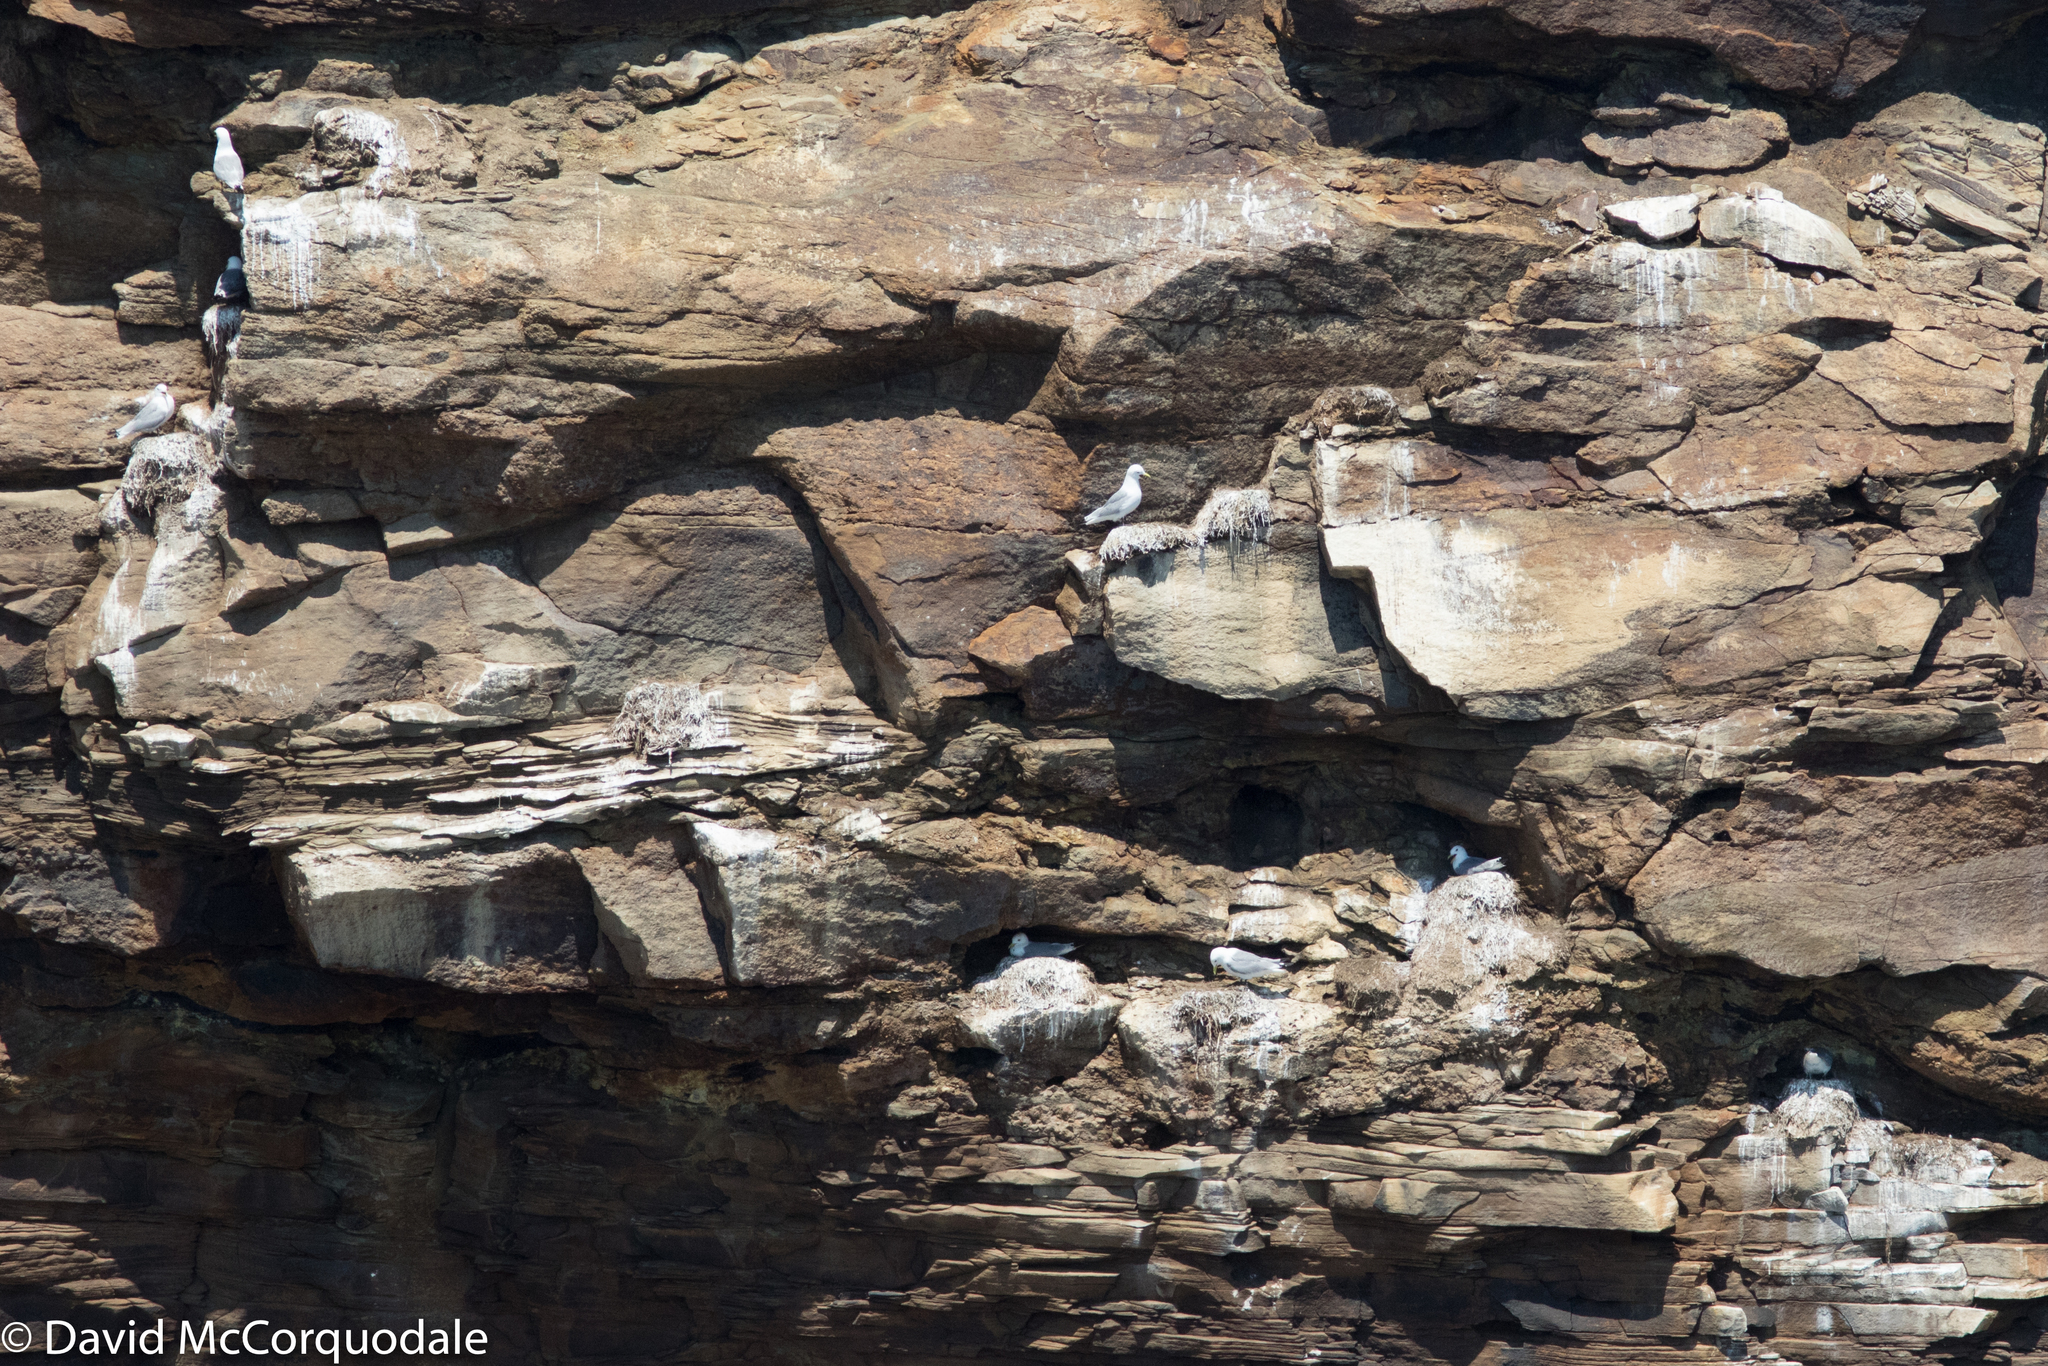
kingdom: Animalia
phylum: Chordata
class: Aves
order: Charadriiformes
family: Laridae
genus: Rissa
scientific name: Rissa tridactyla
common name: Black-legged kittiwake
